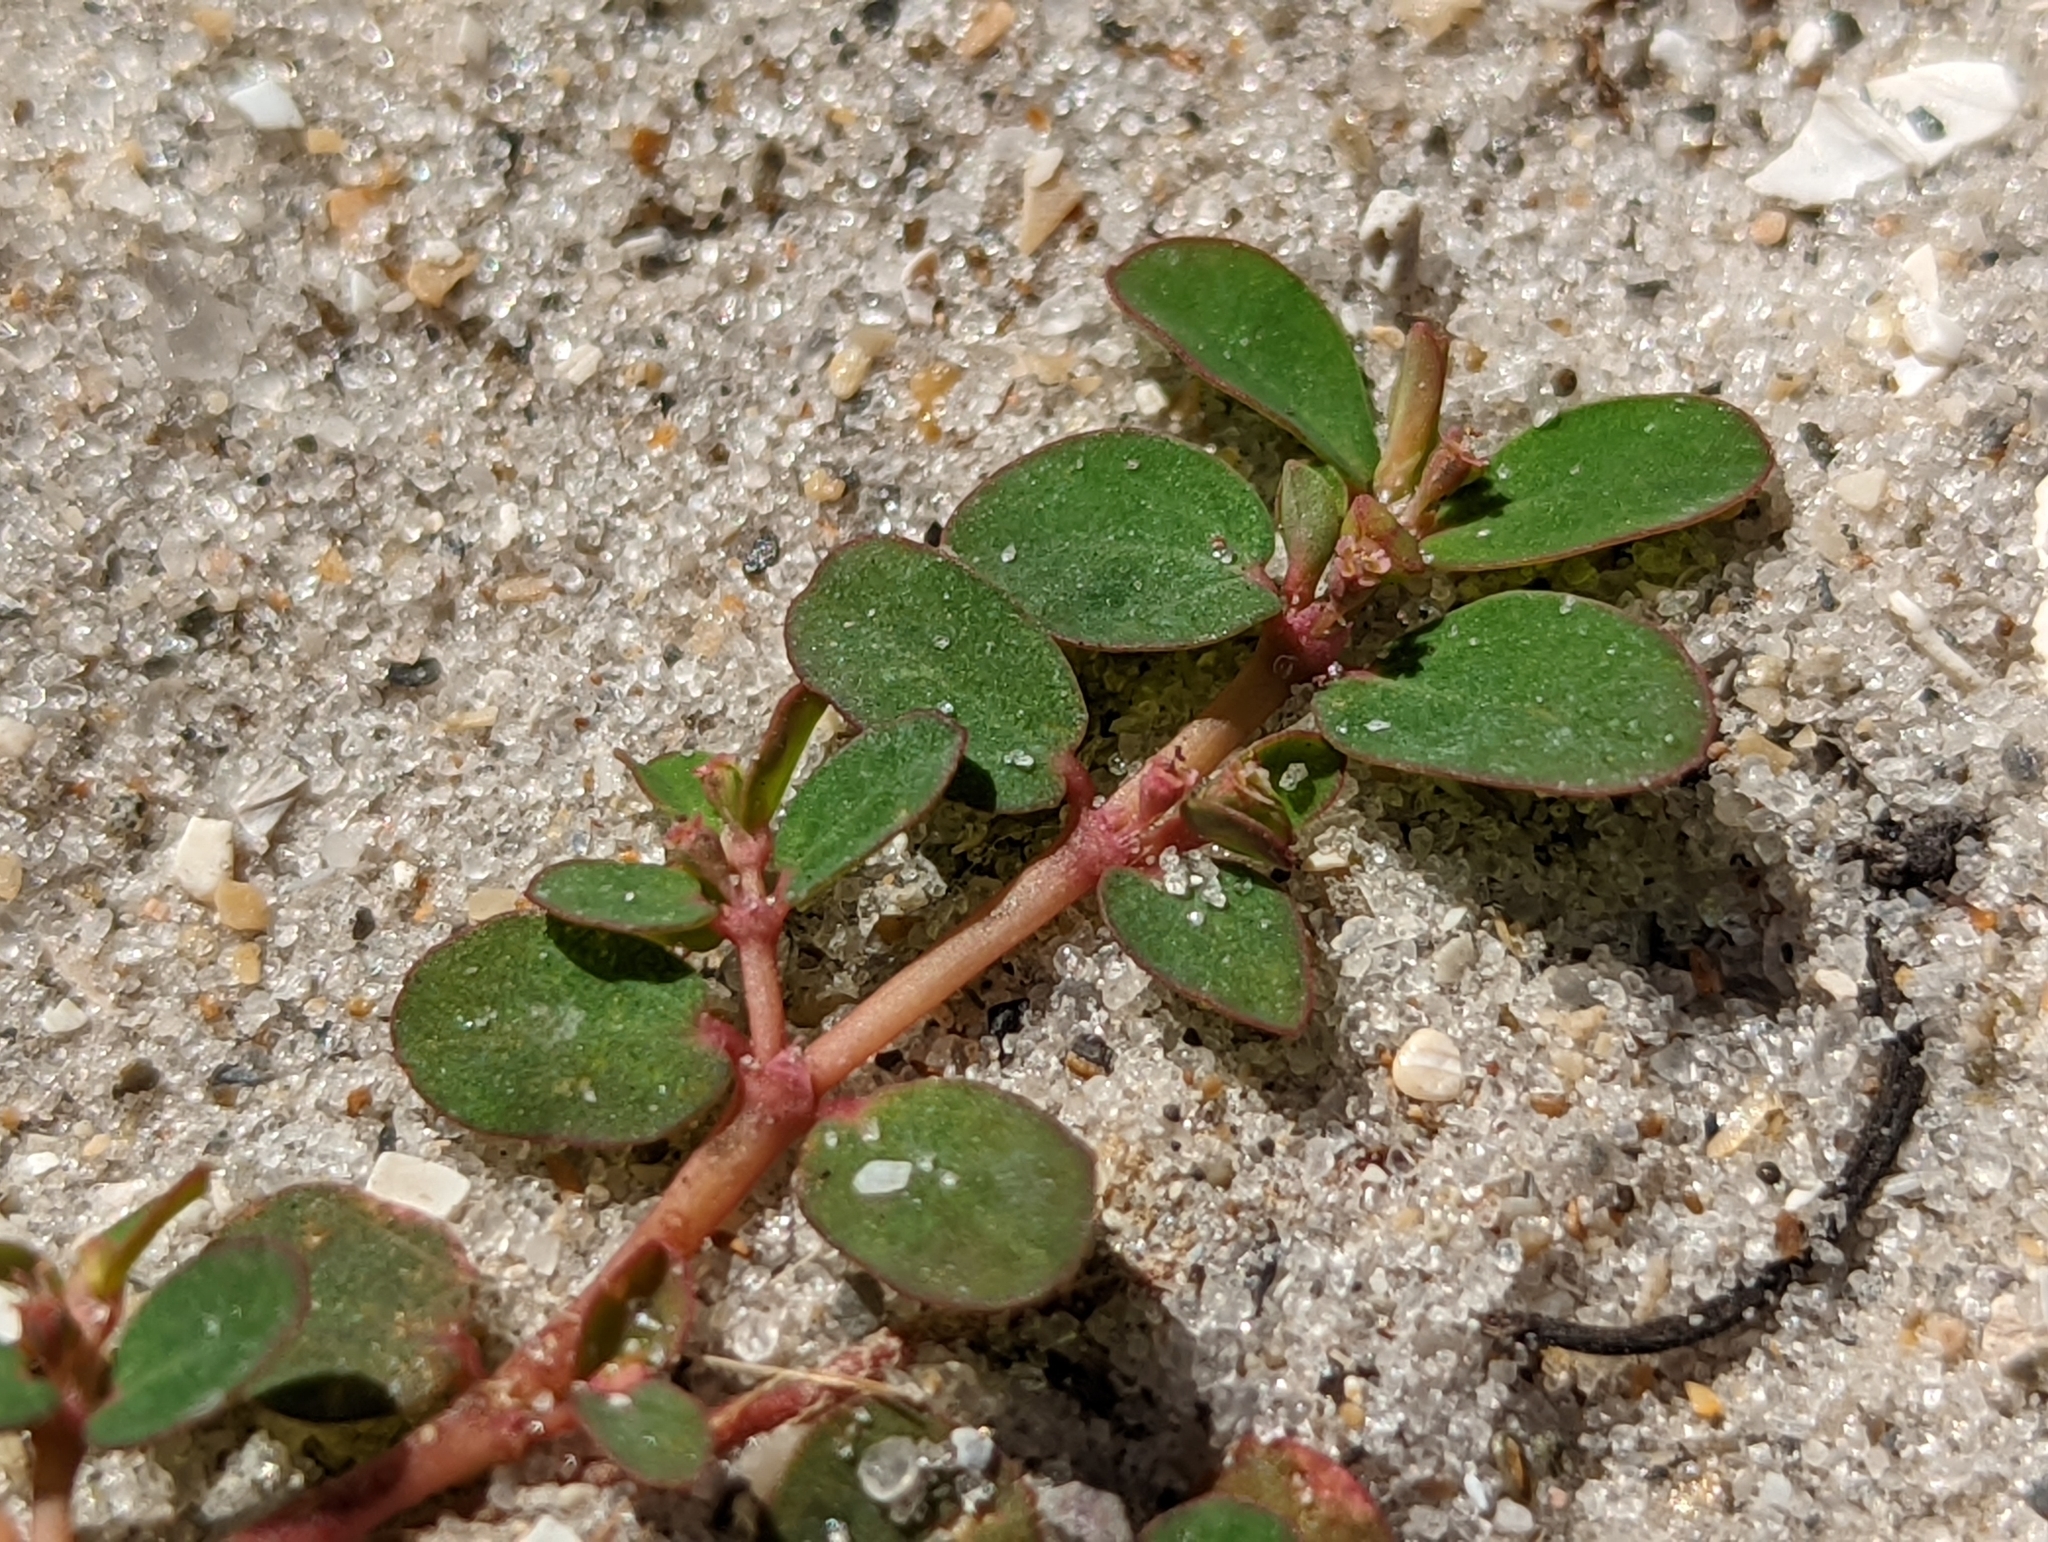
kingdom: Plantae
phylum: Tracheophyta
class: Magnoliopsida
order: Malpighiales
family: Euphorbiaceae
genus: Euphorbia
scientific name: Euphorbia blodgettii
